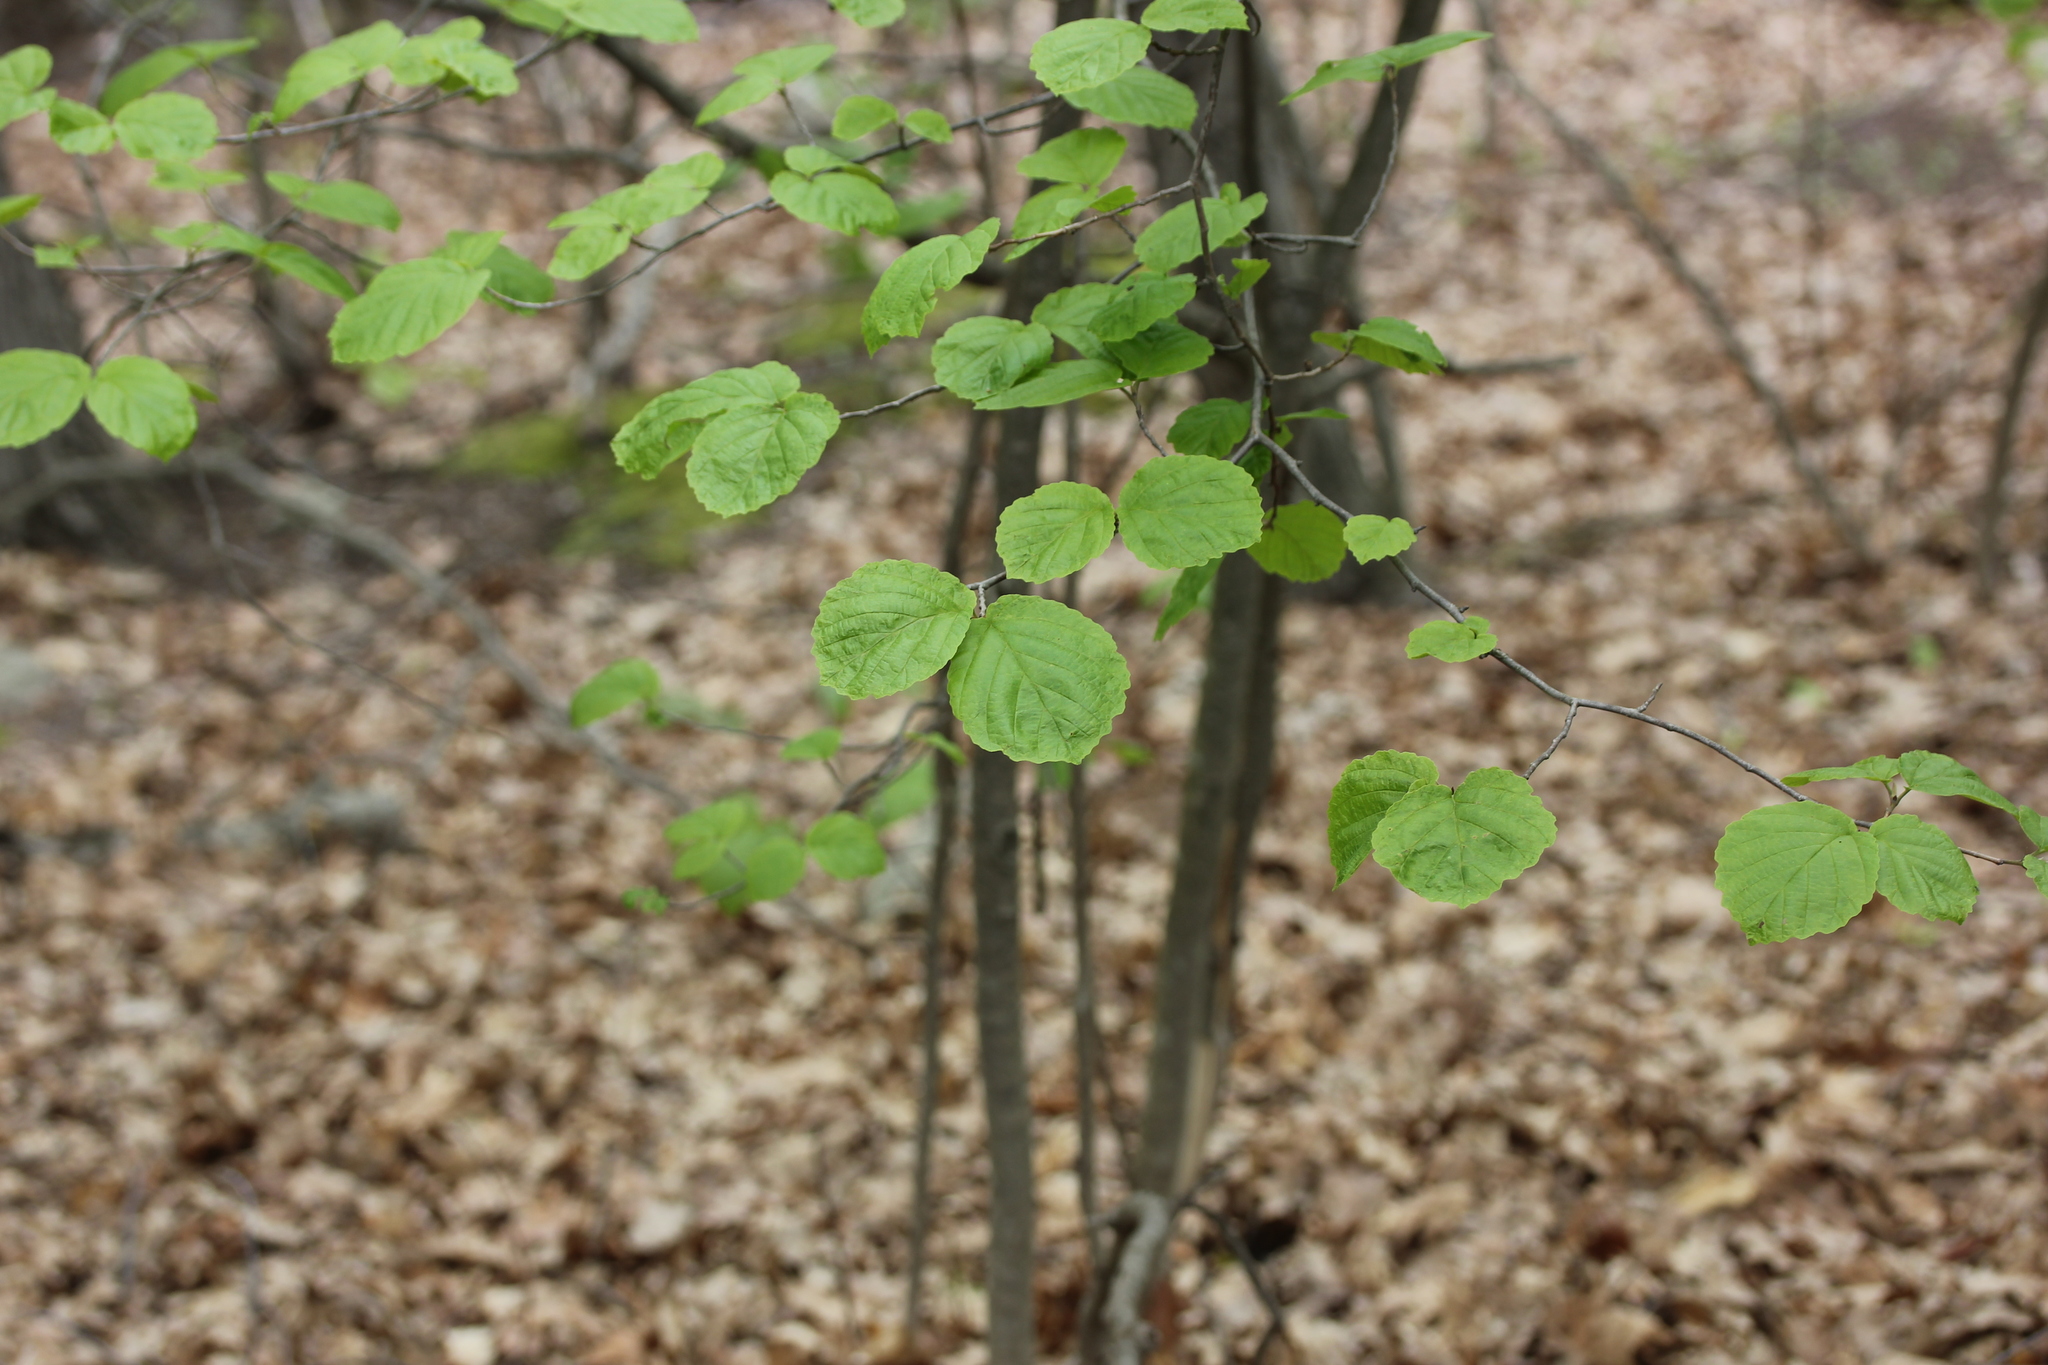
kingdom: Plantae
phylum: Tracheophyta
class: Magnoliopsida
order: Saxifragales
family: Hamamelidaceae
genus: Hamamelis
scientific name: Hamamelis virginiana
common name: Witch-hazel
